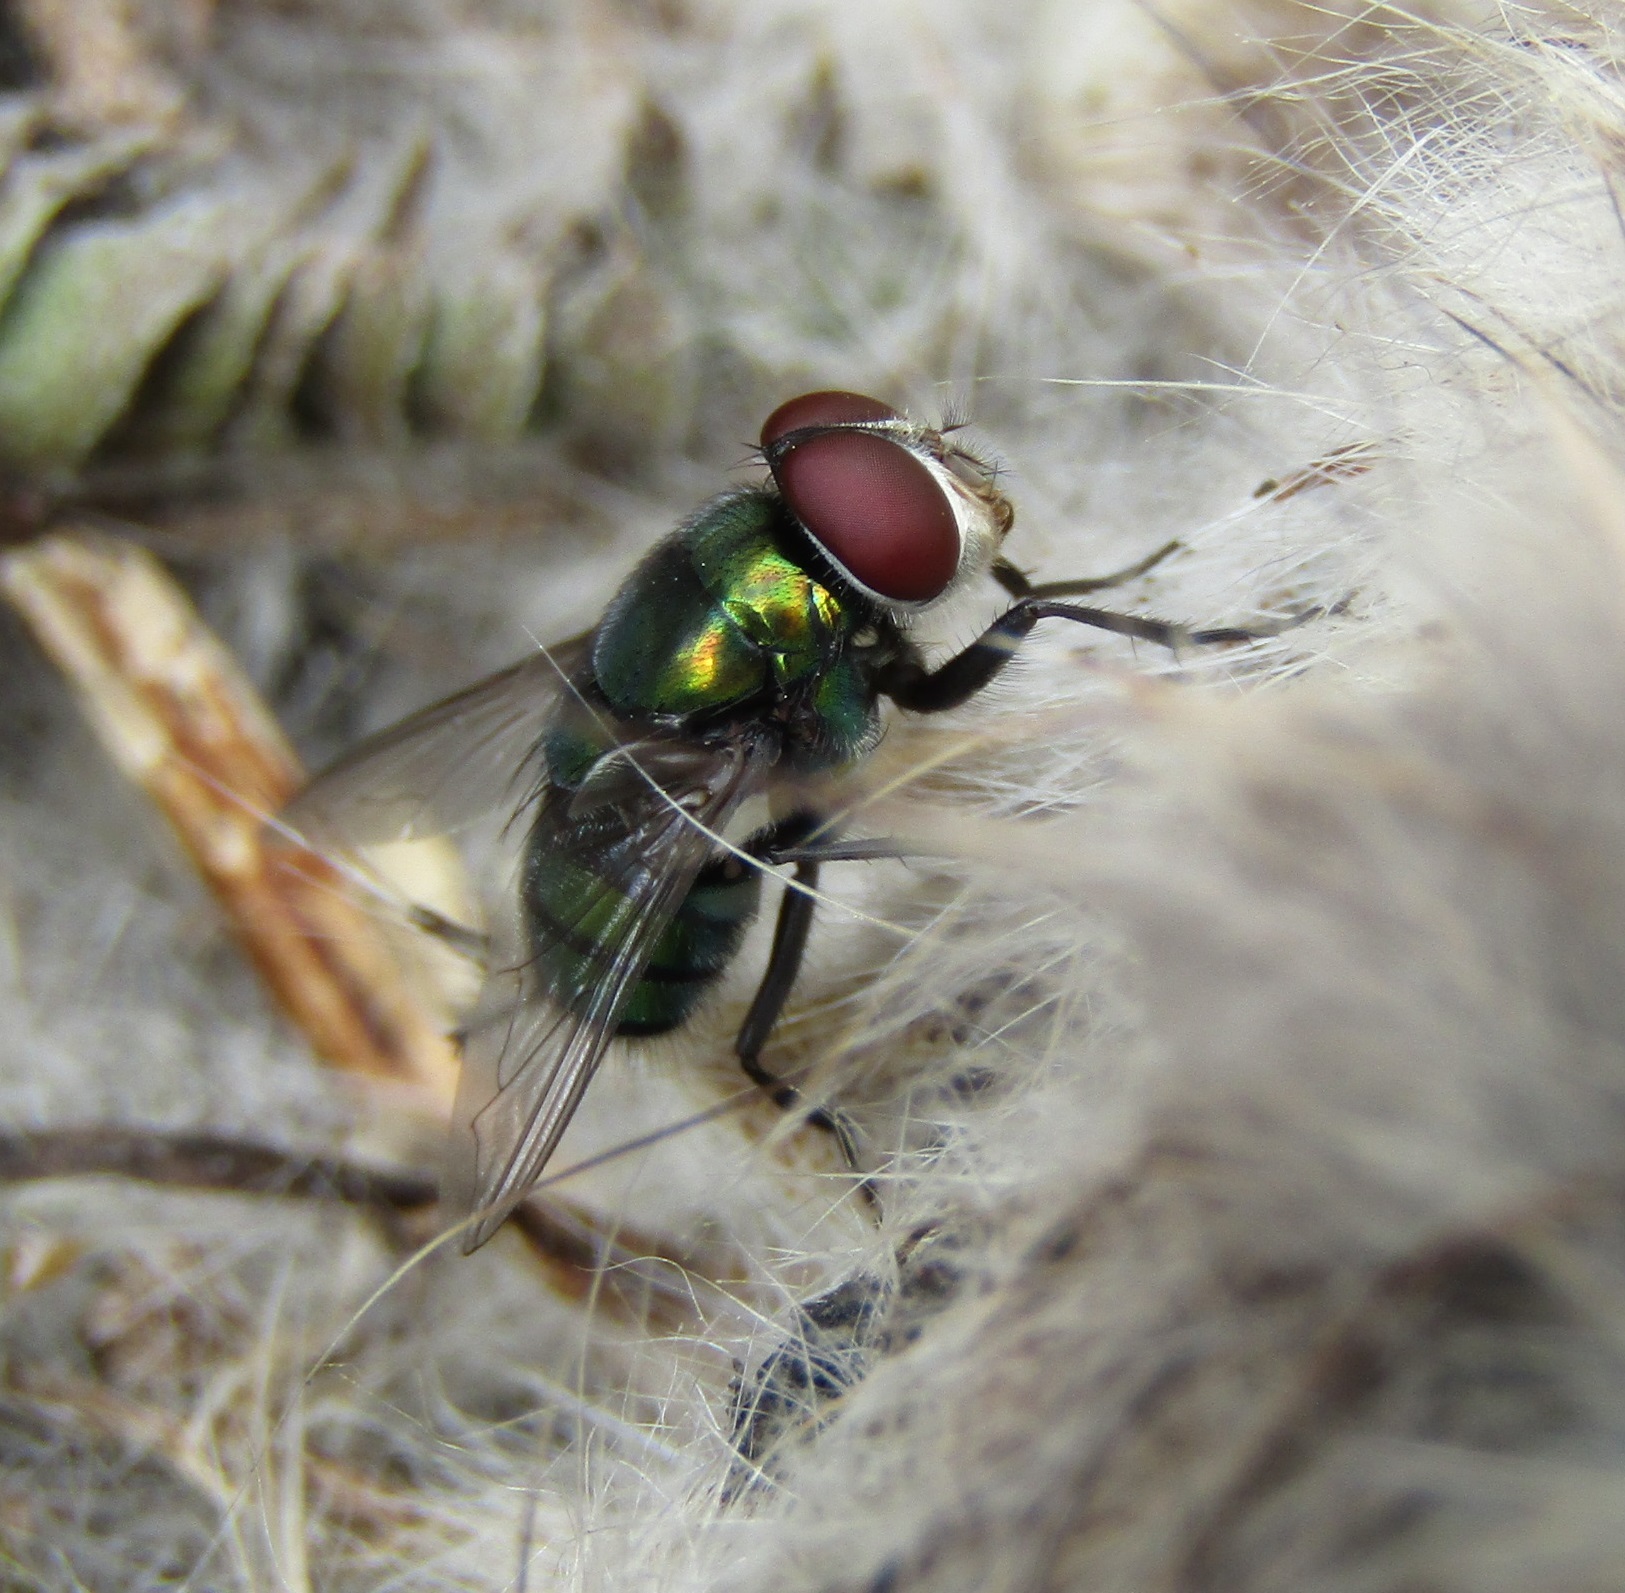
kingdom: Animalia
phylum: Arthropoda
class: Insecta
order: Diptera
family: Calliphoridae
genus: Chrysomya
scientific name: Chrysomya rufifacies
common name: Blow fly
